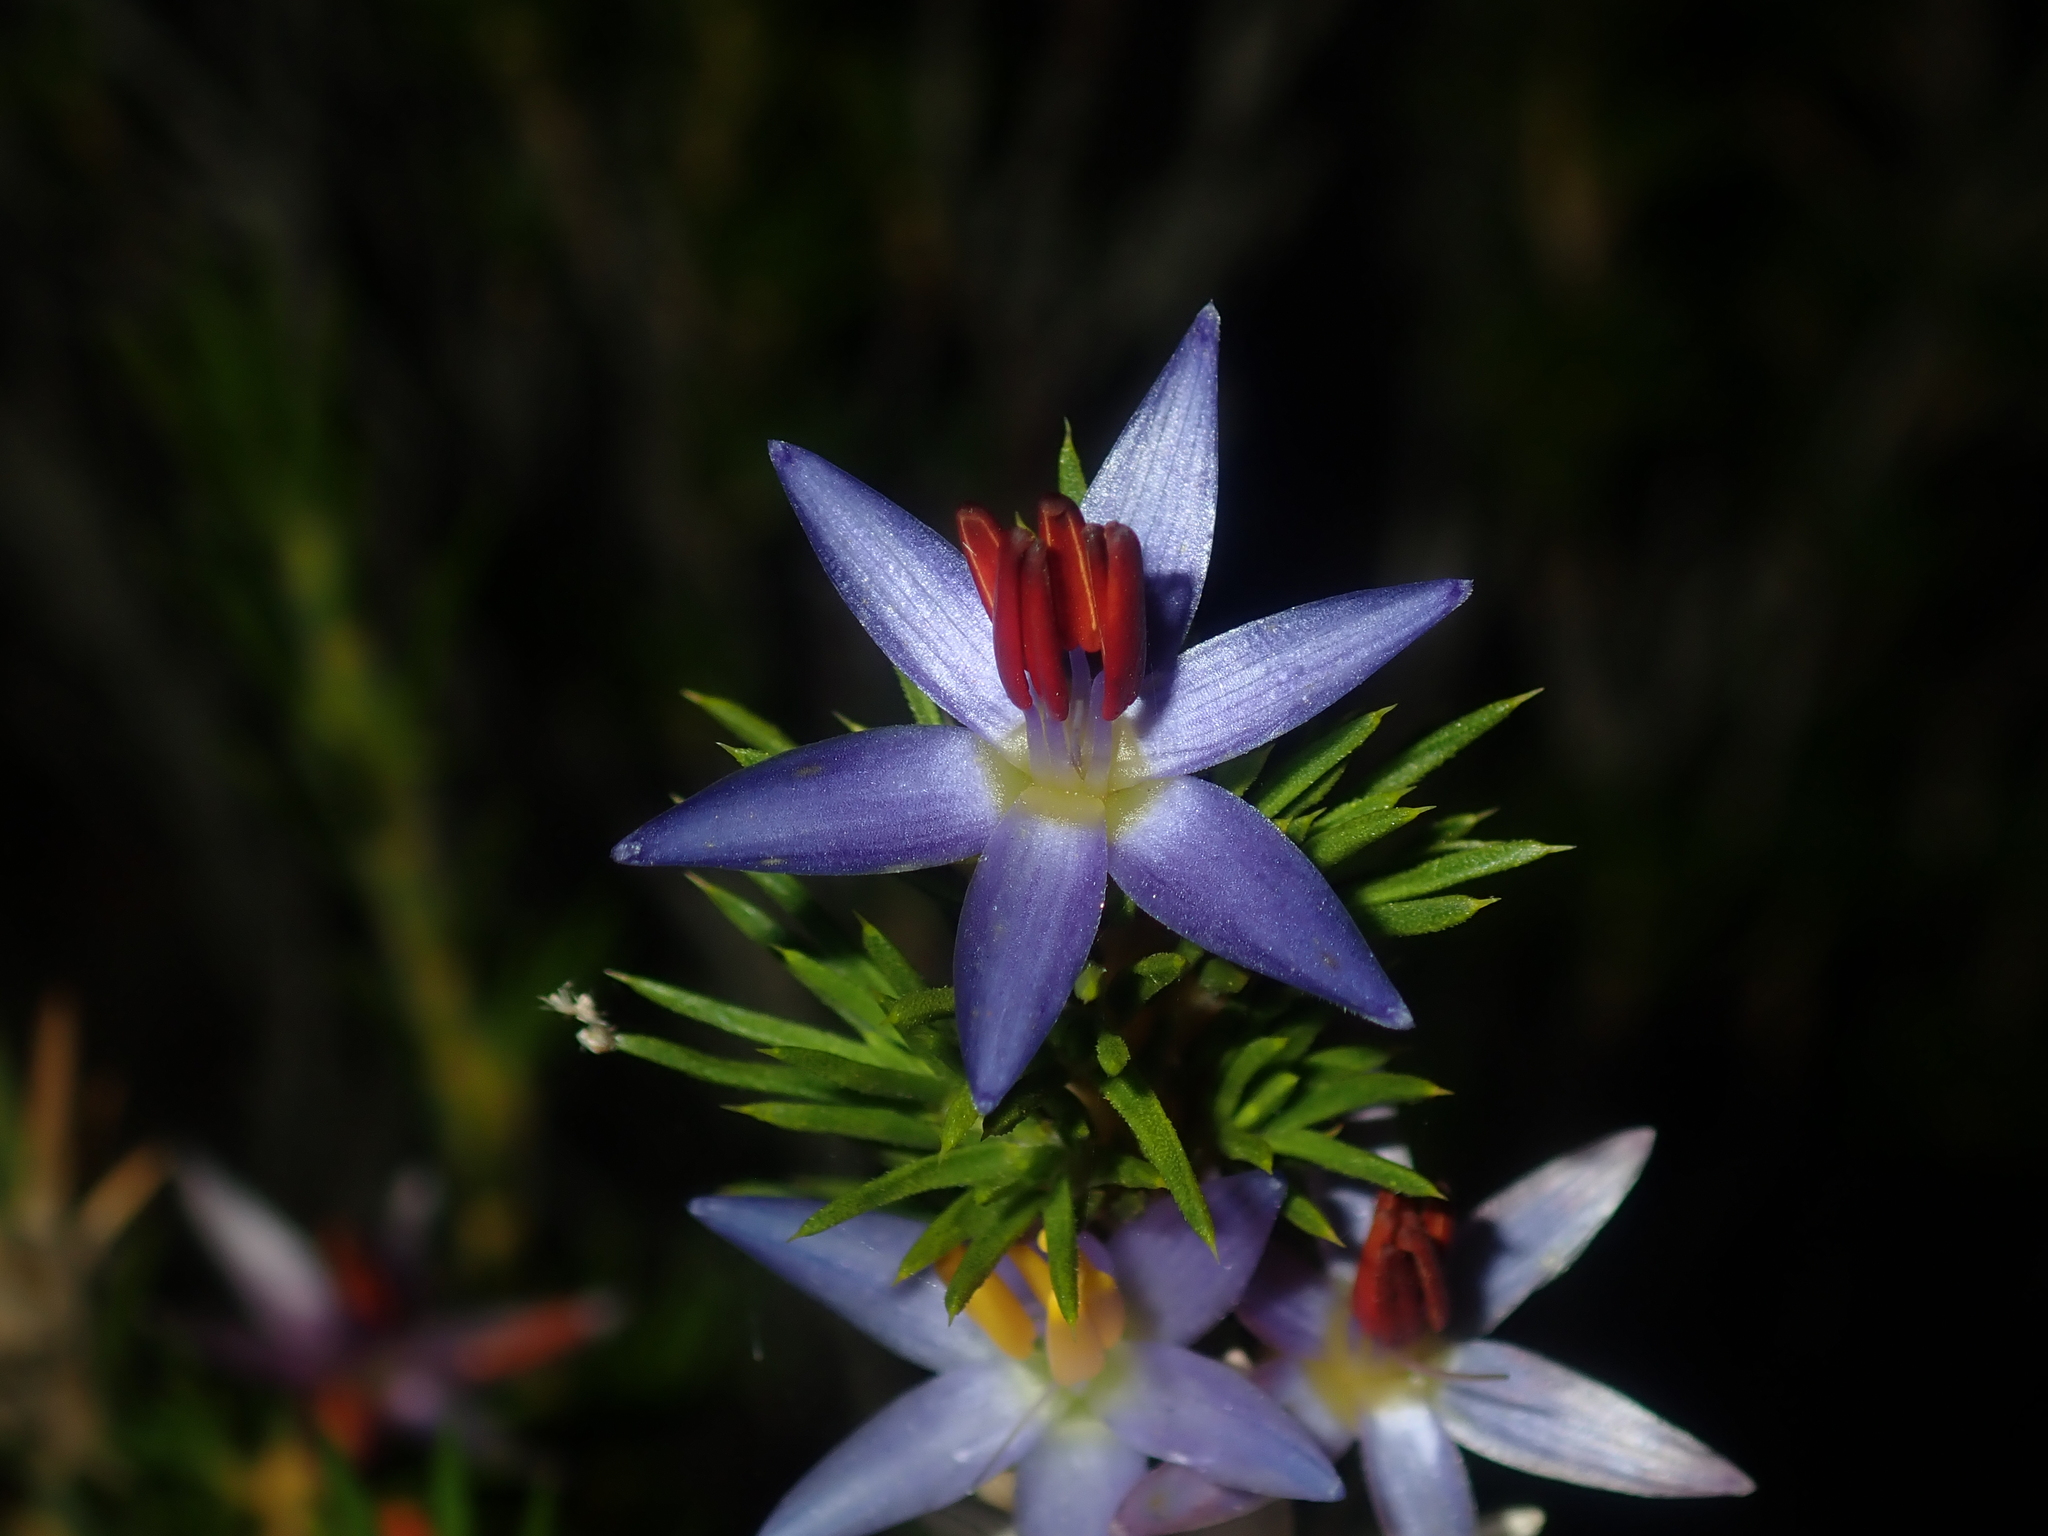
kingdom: Plantae
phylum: Tracheophyta
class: Liliopsida
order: Arecales
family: Dasypogonaceae
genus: Calectasia
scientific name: Calectasia narragara
